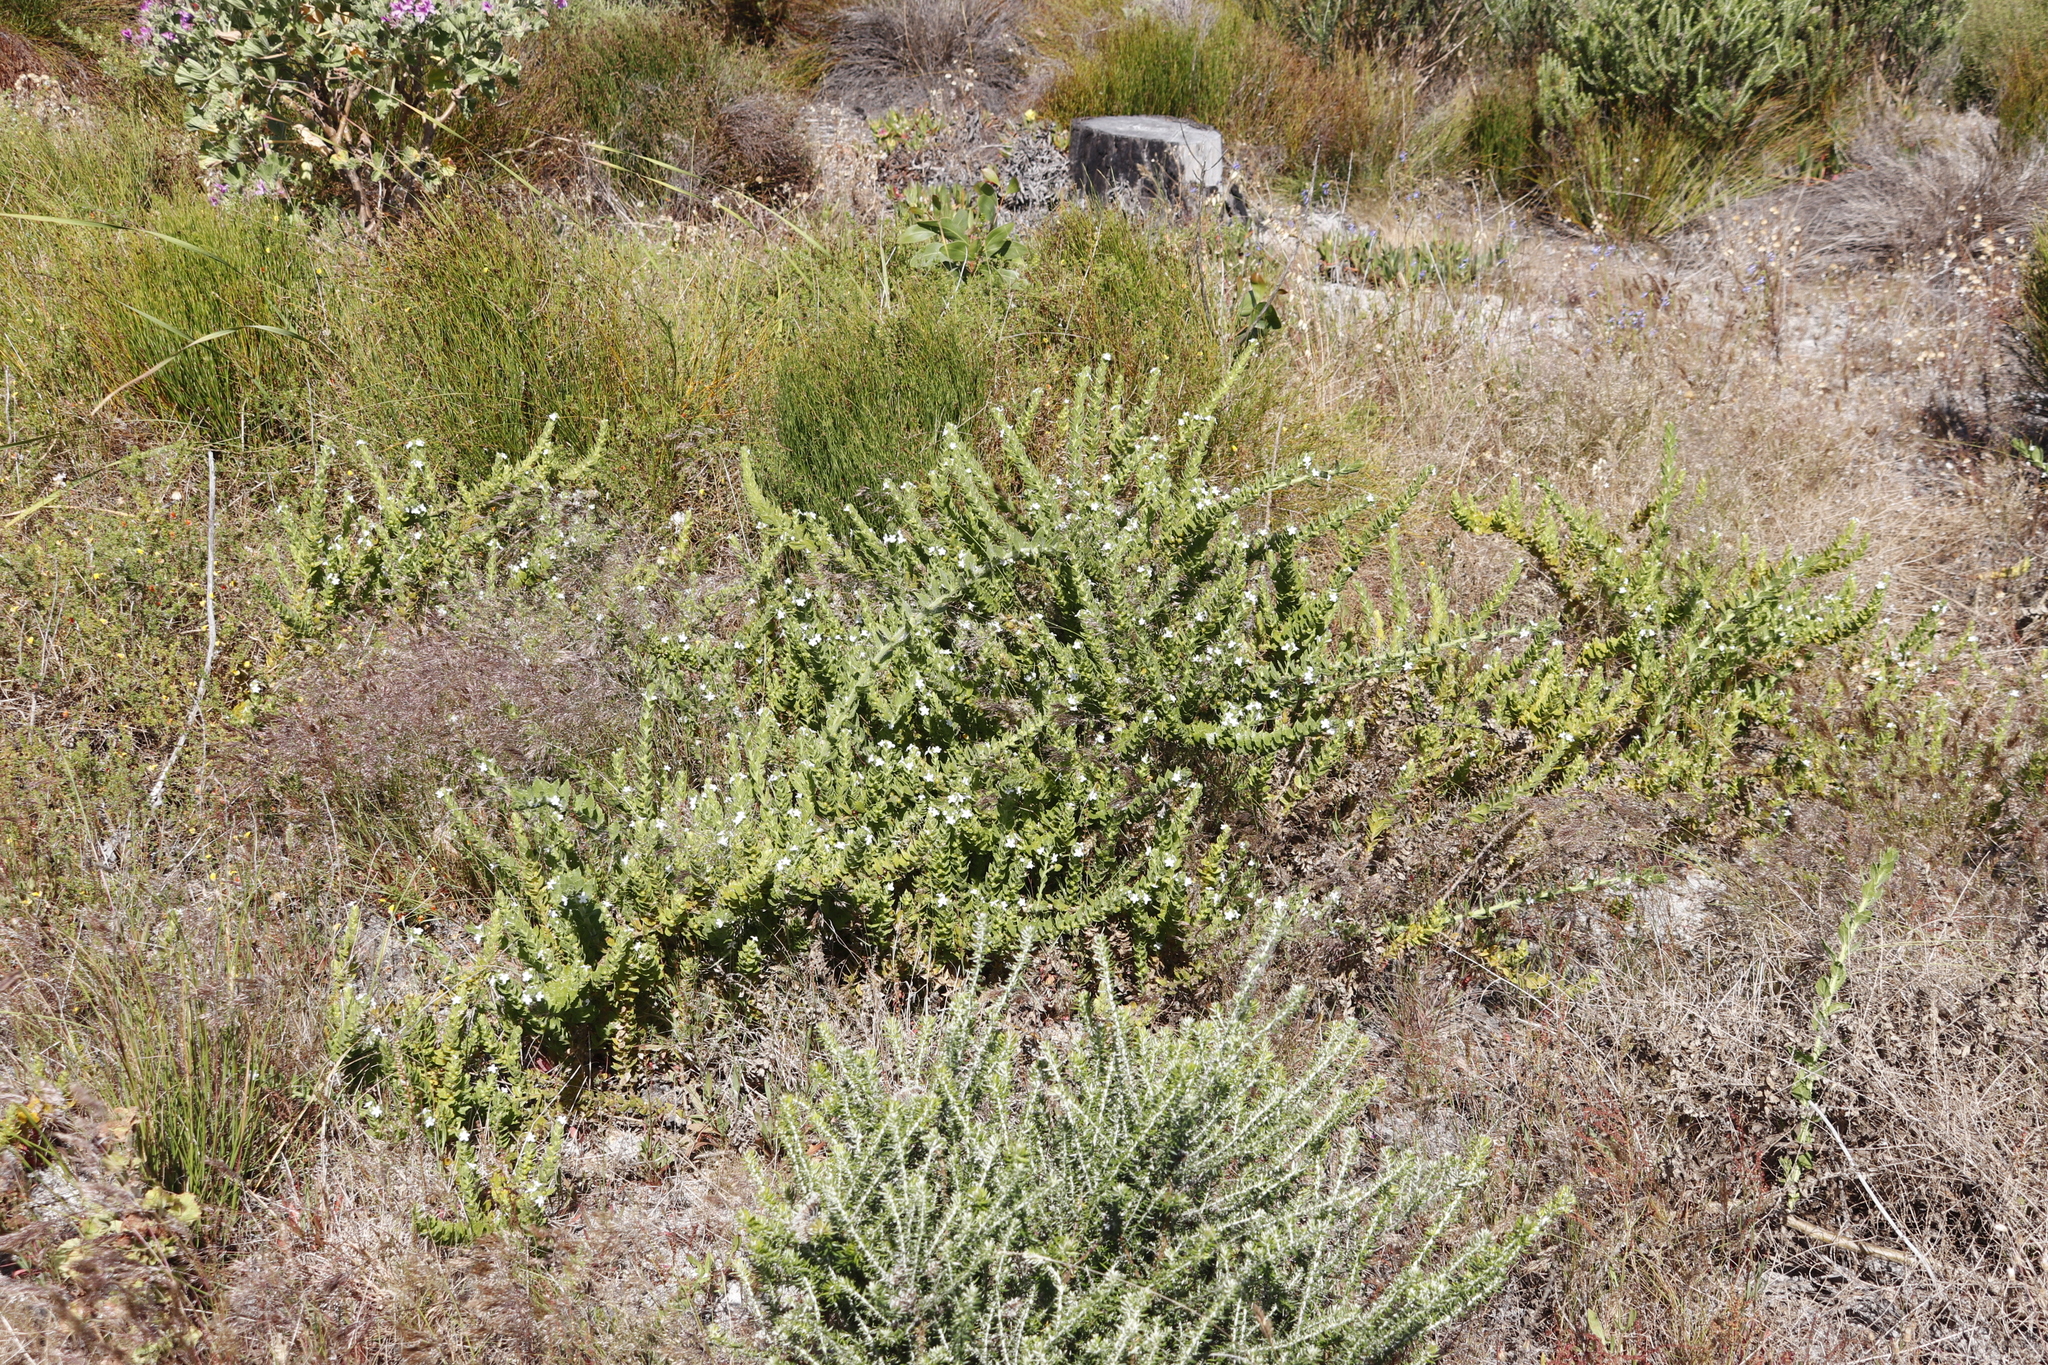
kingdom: Plantae
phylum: Tracheophyta
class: Magnoliopsida
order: Lamiales
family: Scrophulariaceae
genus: Oftia
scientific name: Oftia africana
